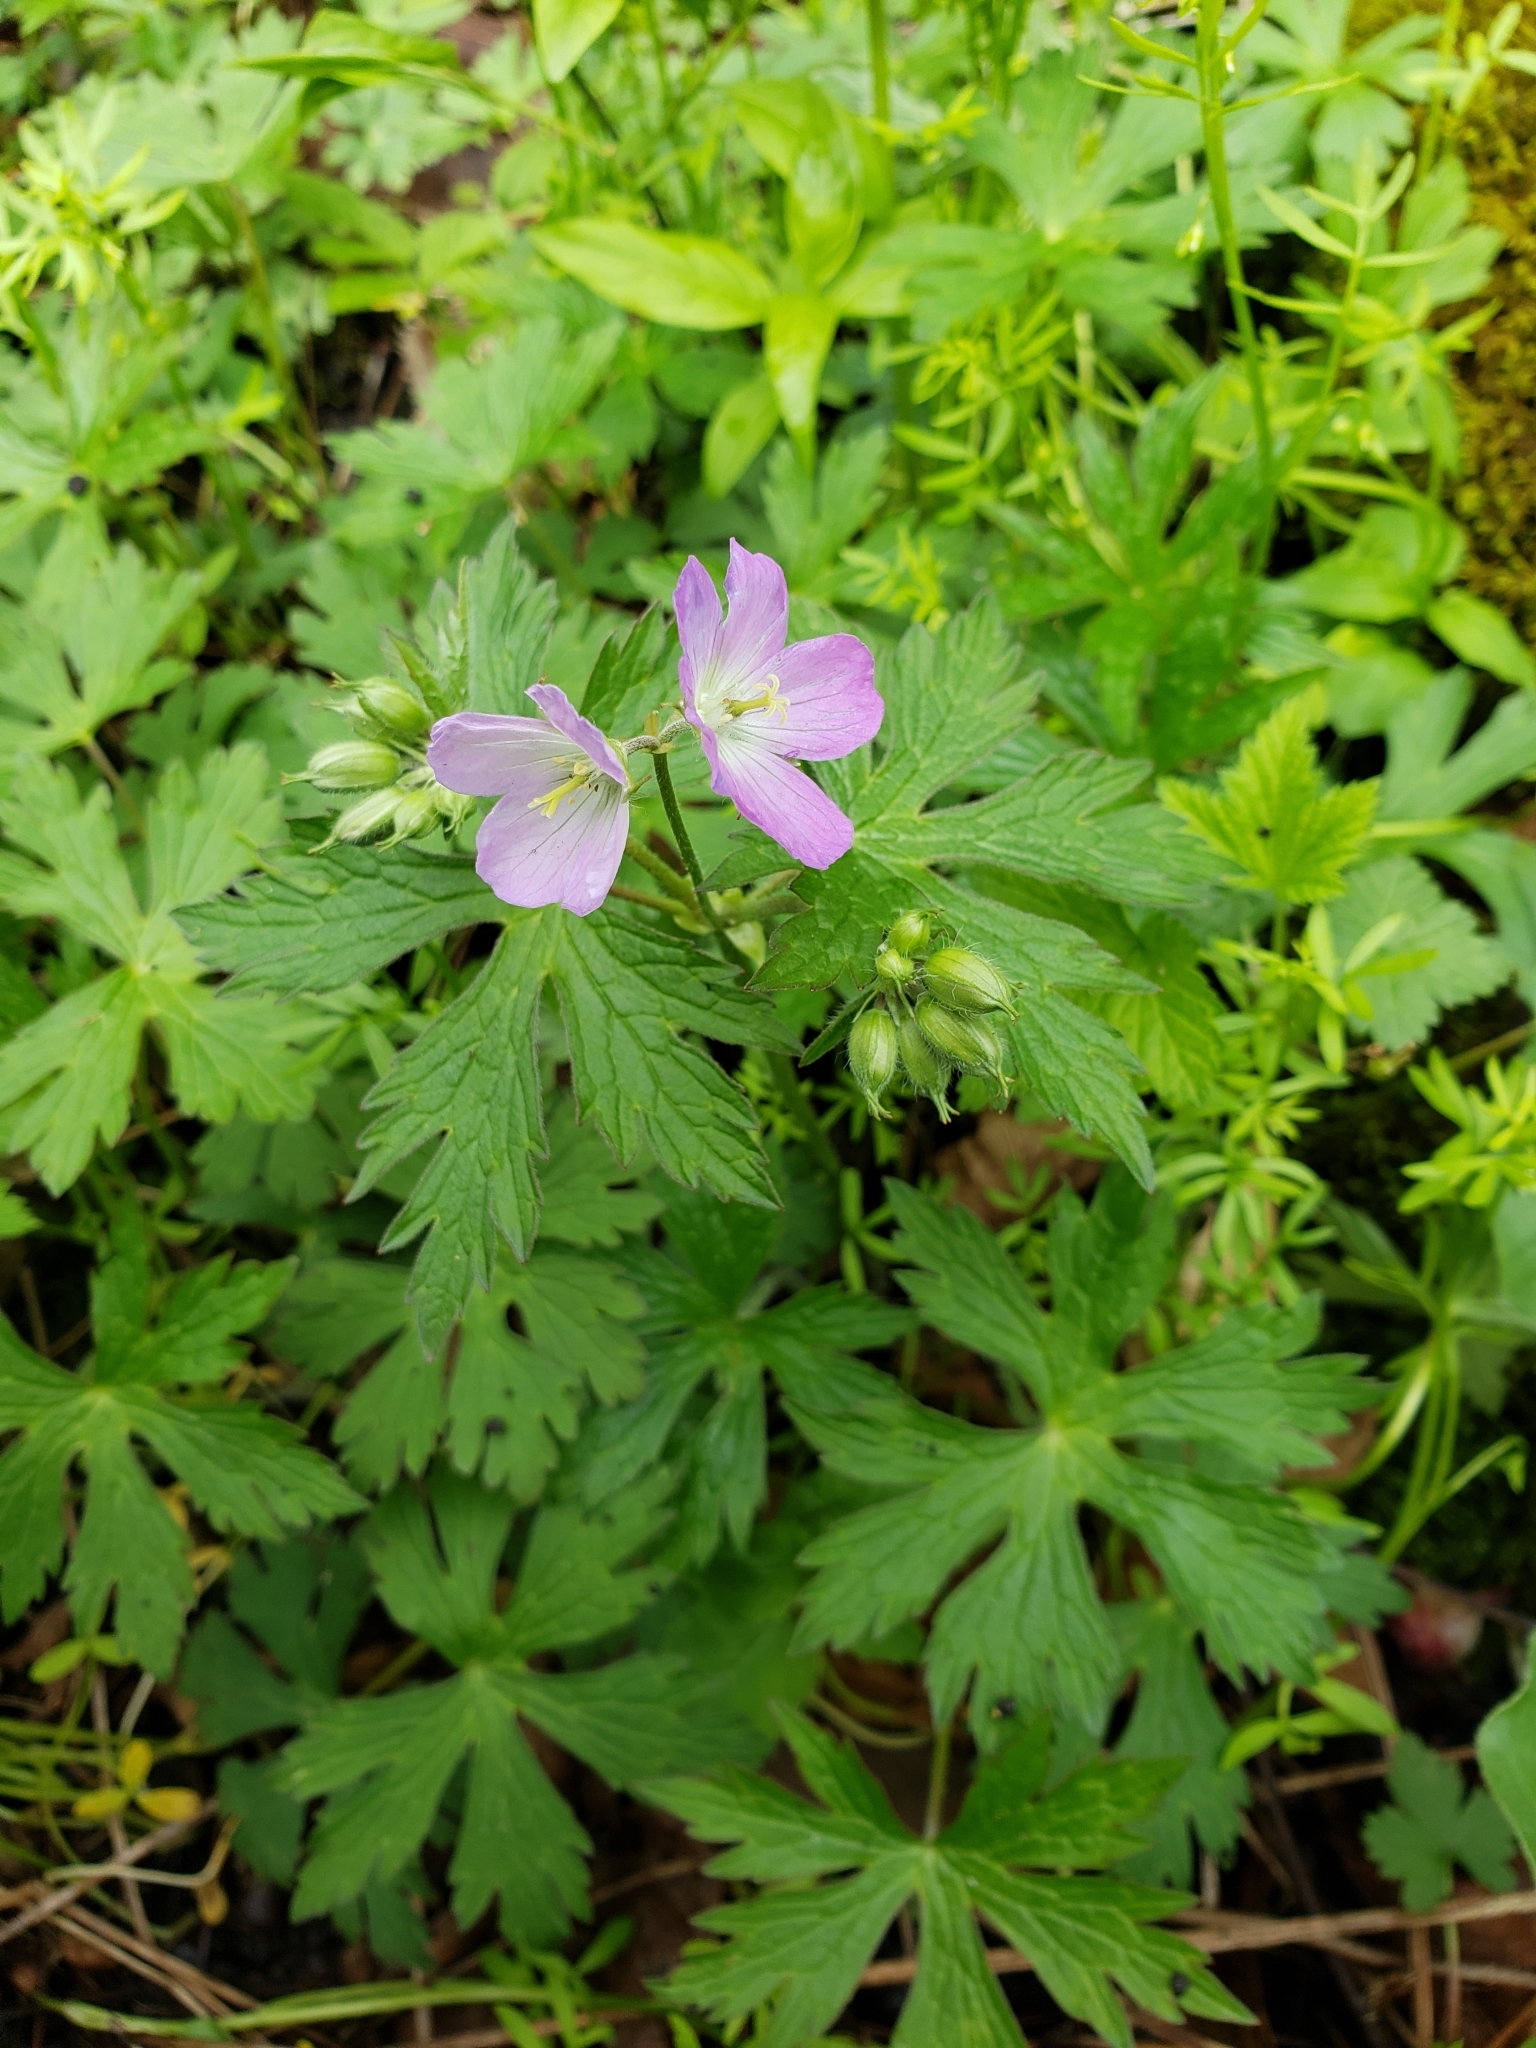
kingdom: Plantae
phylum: Tracheophyta
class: Magnoliopsida
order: Geraniales
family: Geraniaceae
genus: Geranium
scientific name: Geranium maculatum
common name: Spotted geranium
